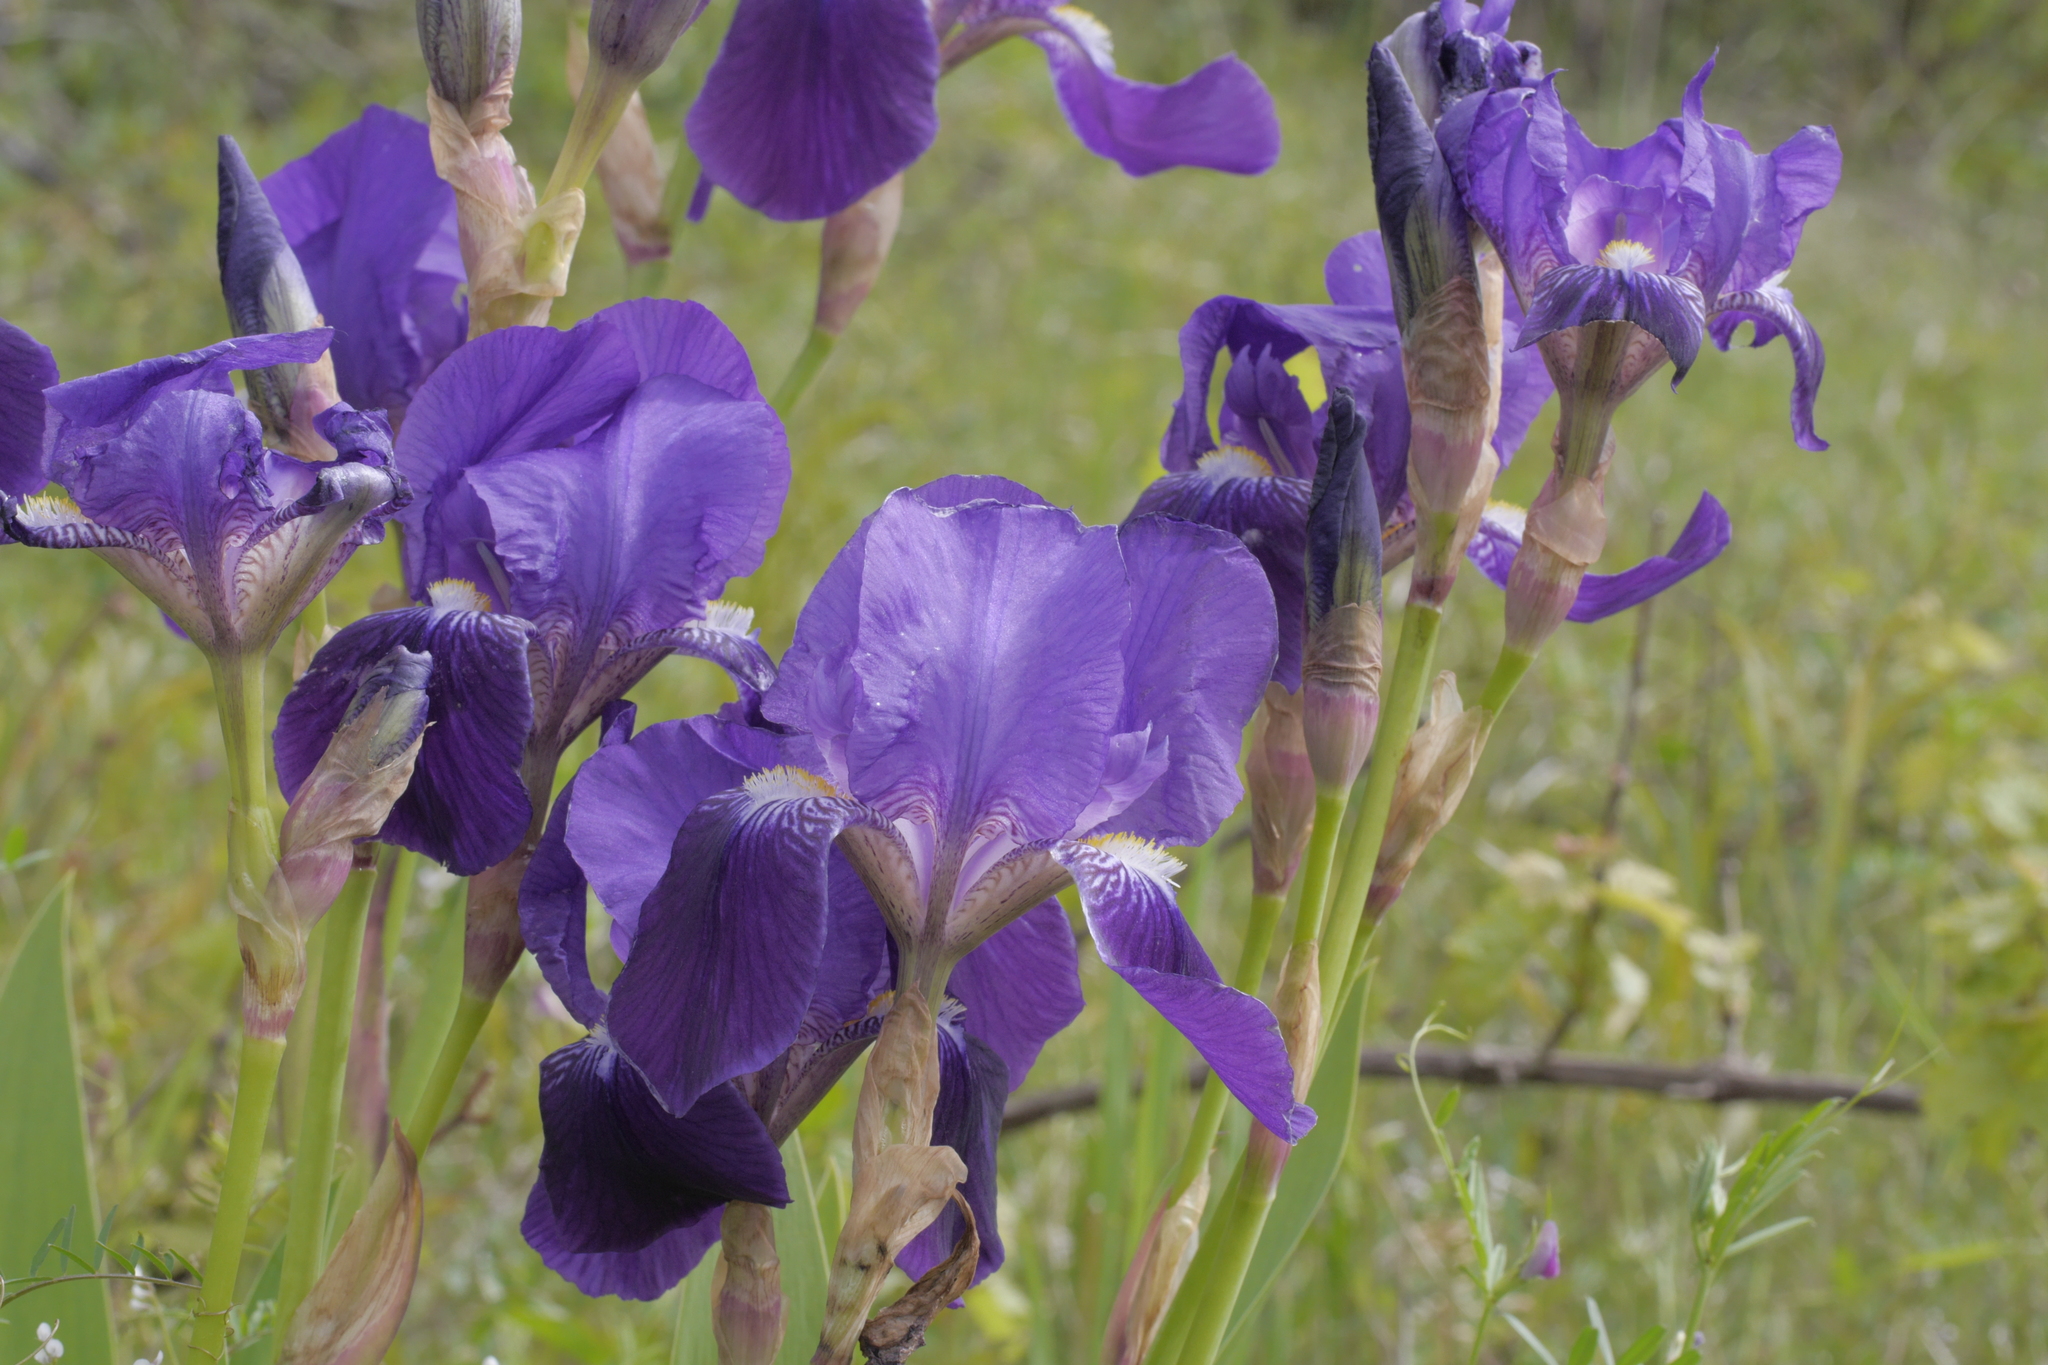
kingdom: Plantae
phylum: Tracheophyta
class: Liliopsida
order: Asparagales
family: Iridaceae
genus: Iris
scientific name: Iris germanica
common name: German iris
